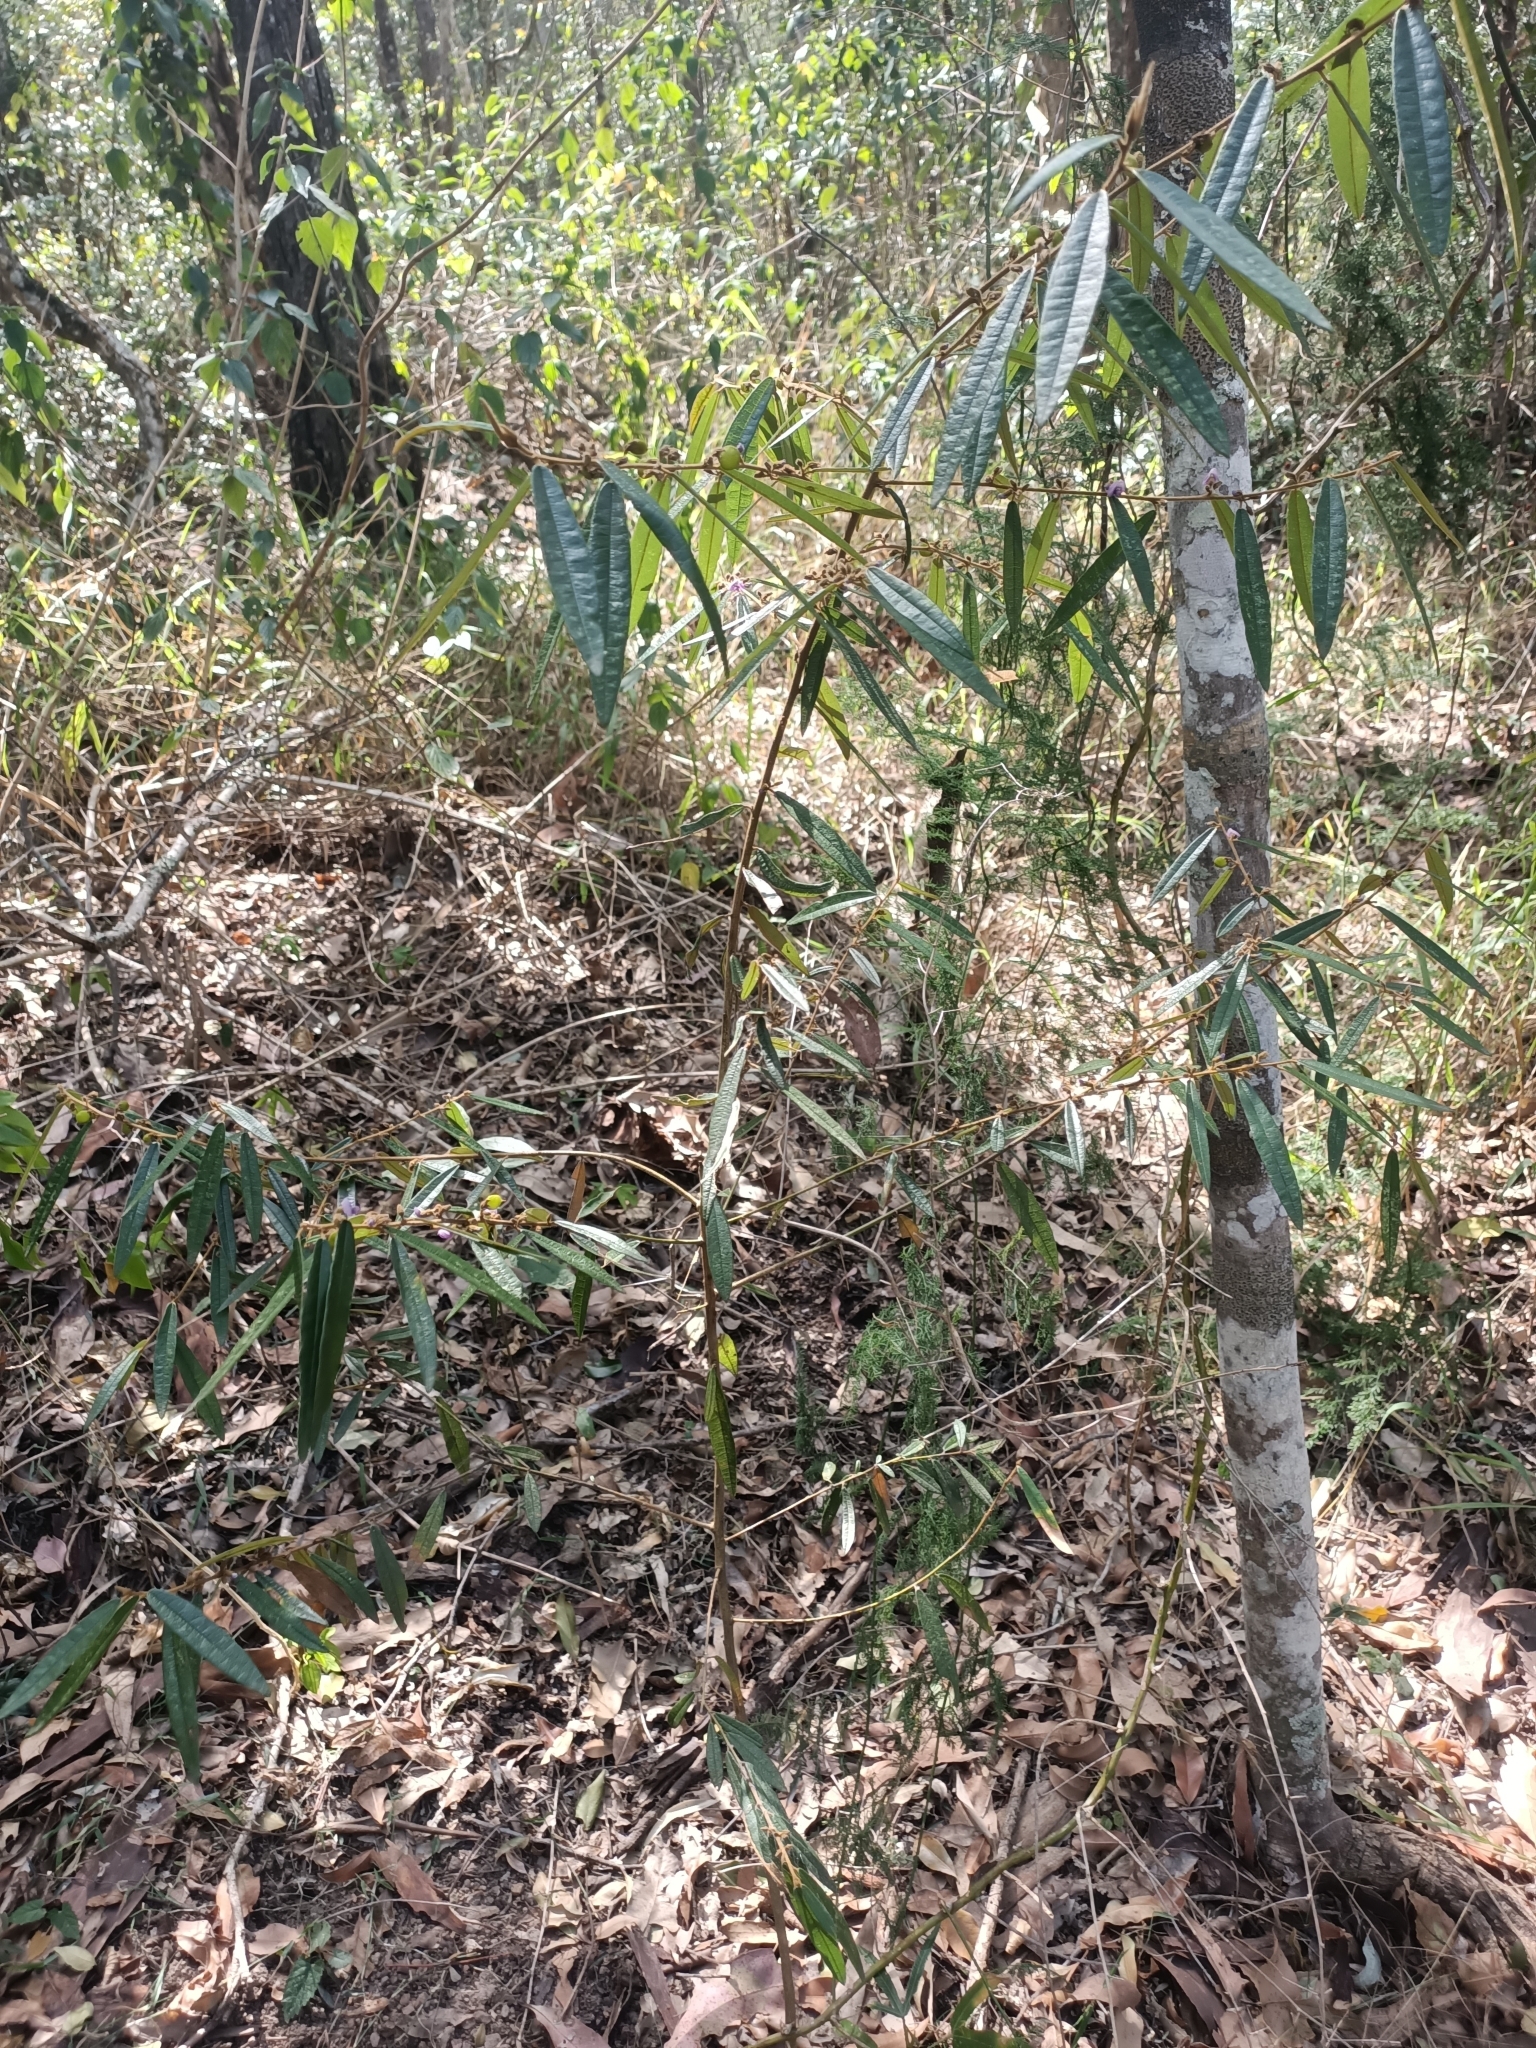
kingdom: Plantae
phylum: Tracheophyta
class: Magnoliopsida
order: Fabales
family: Fabaceae
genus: Hovea
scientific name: Hovea acutifolia
